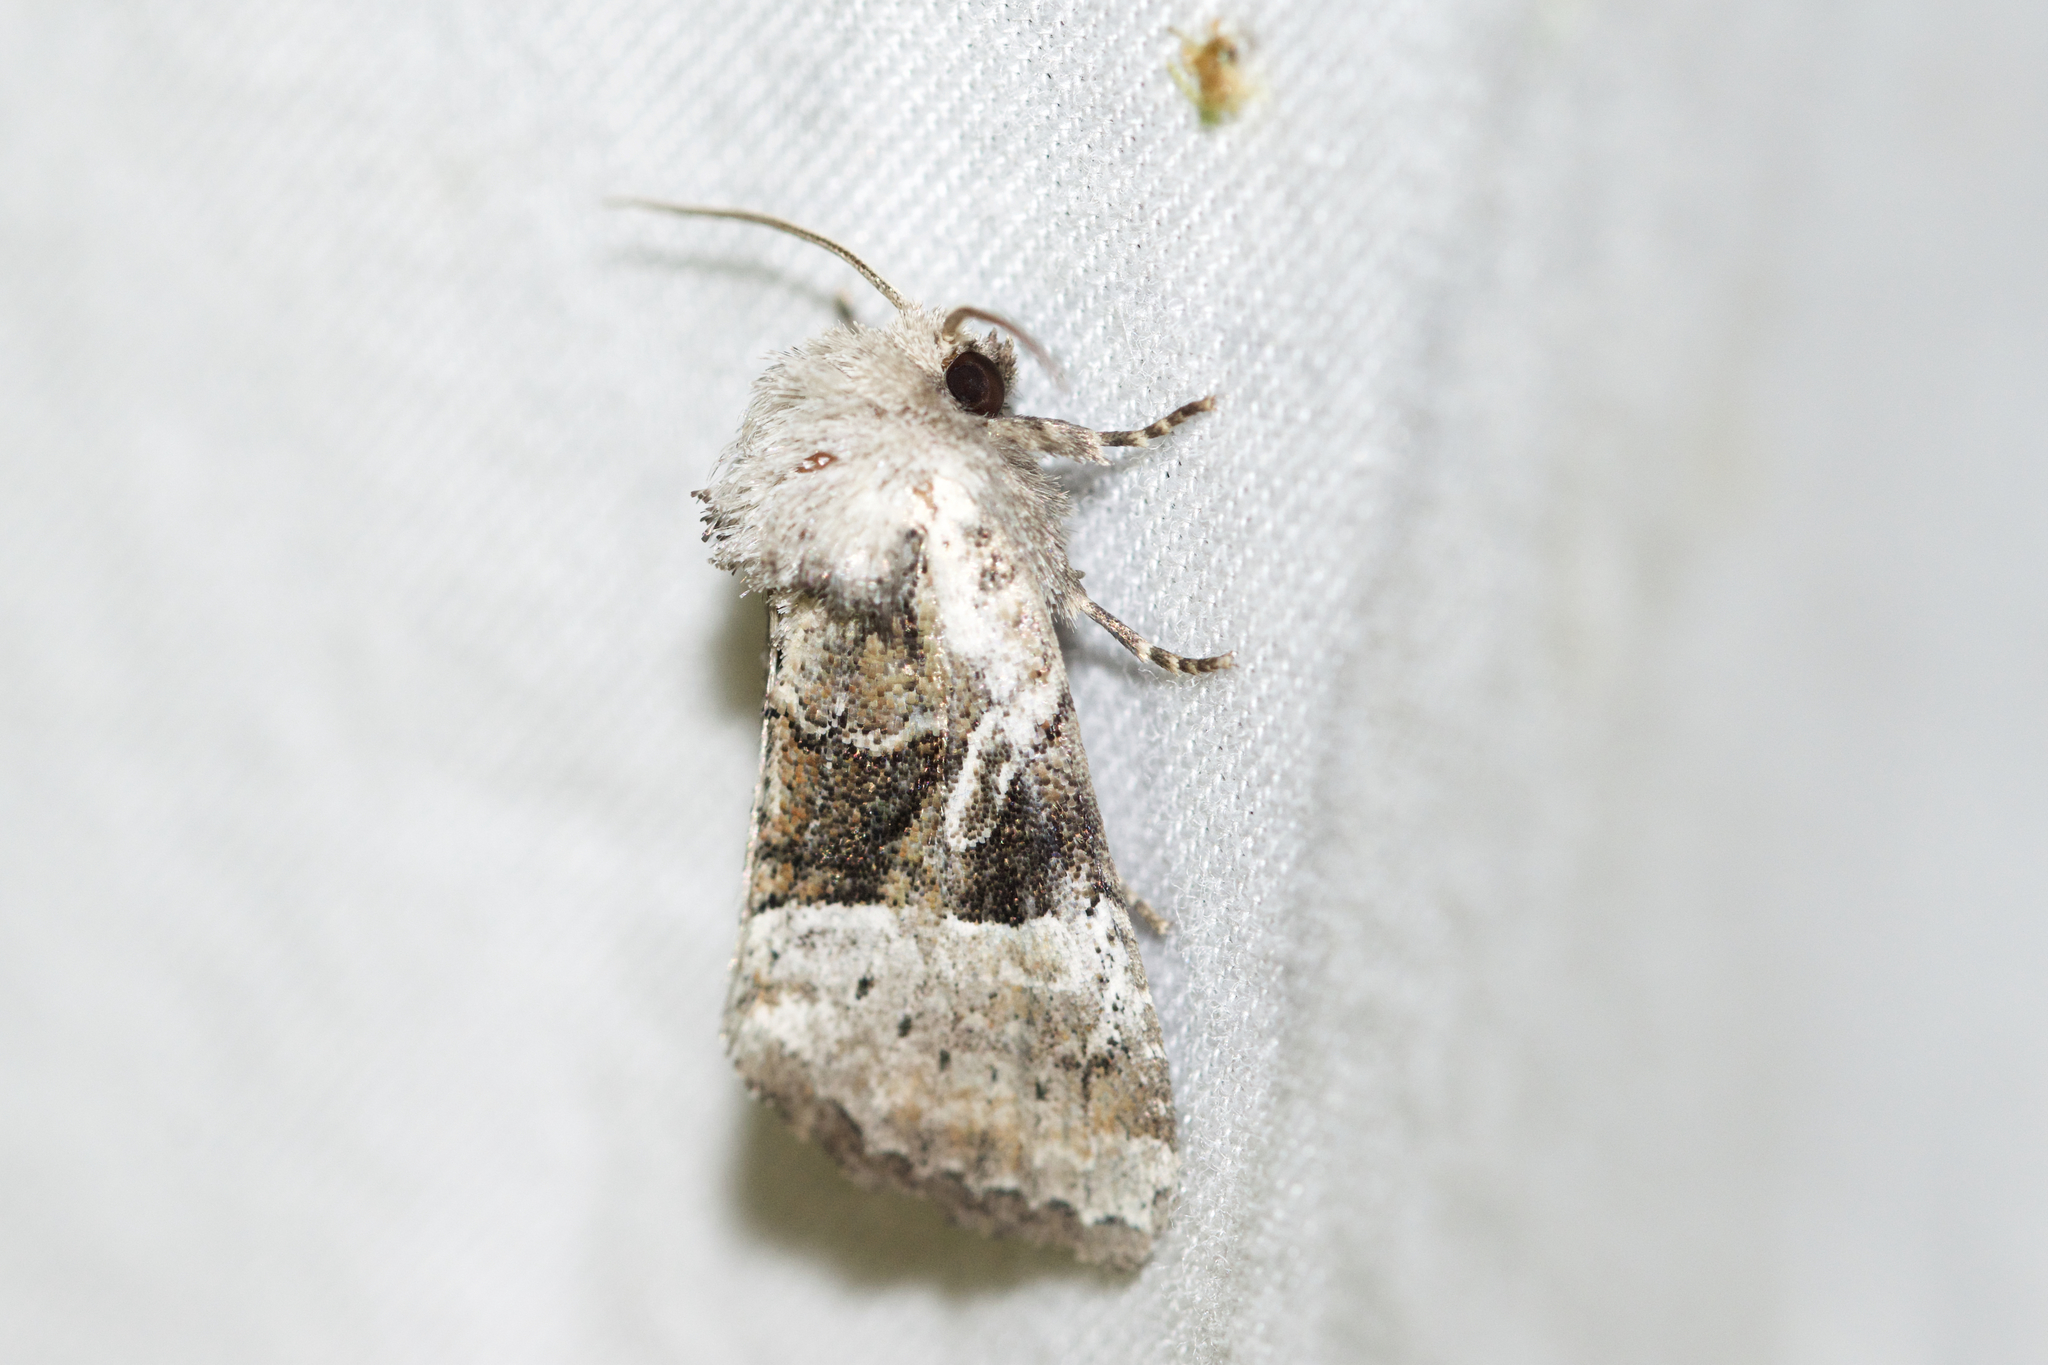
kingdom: Animalia
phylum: Arthropoda
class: Insecta
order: Lepidoptera
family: Noctuidae
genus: Meropleon
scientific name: Meropleon ambifusca
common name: Newman's brocade
